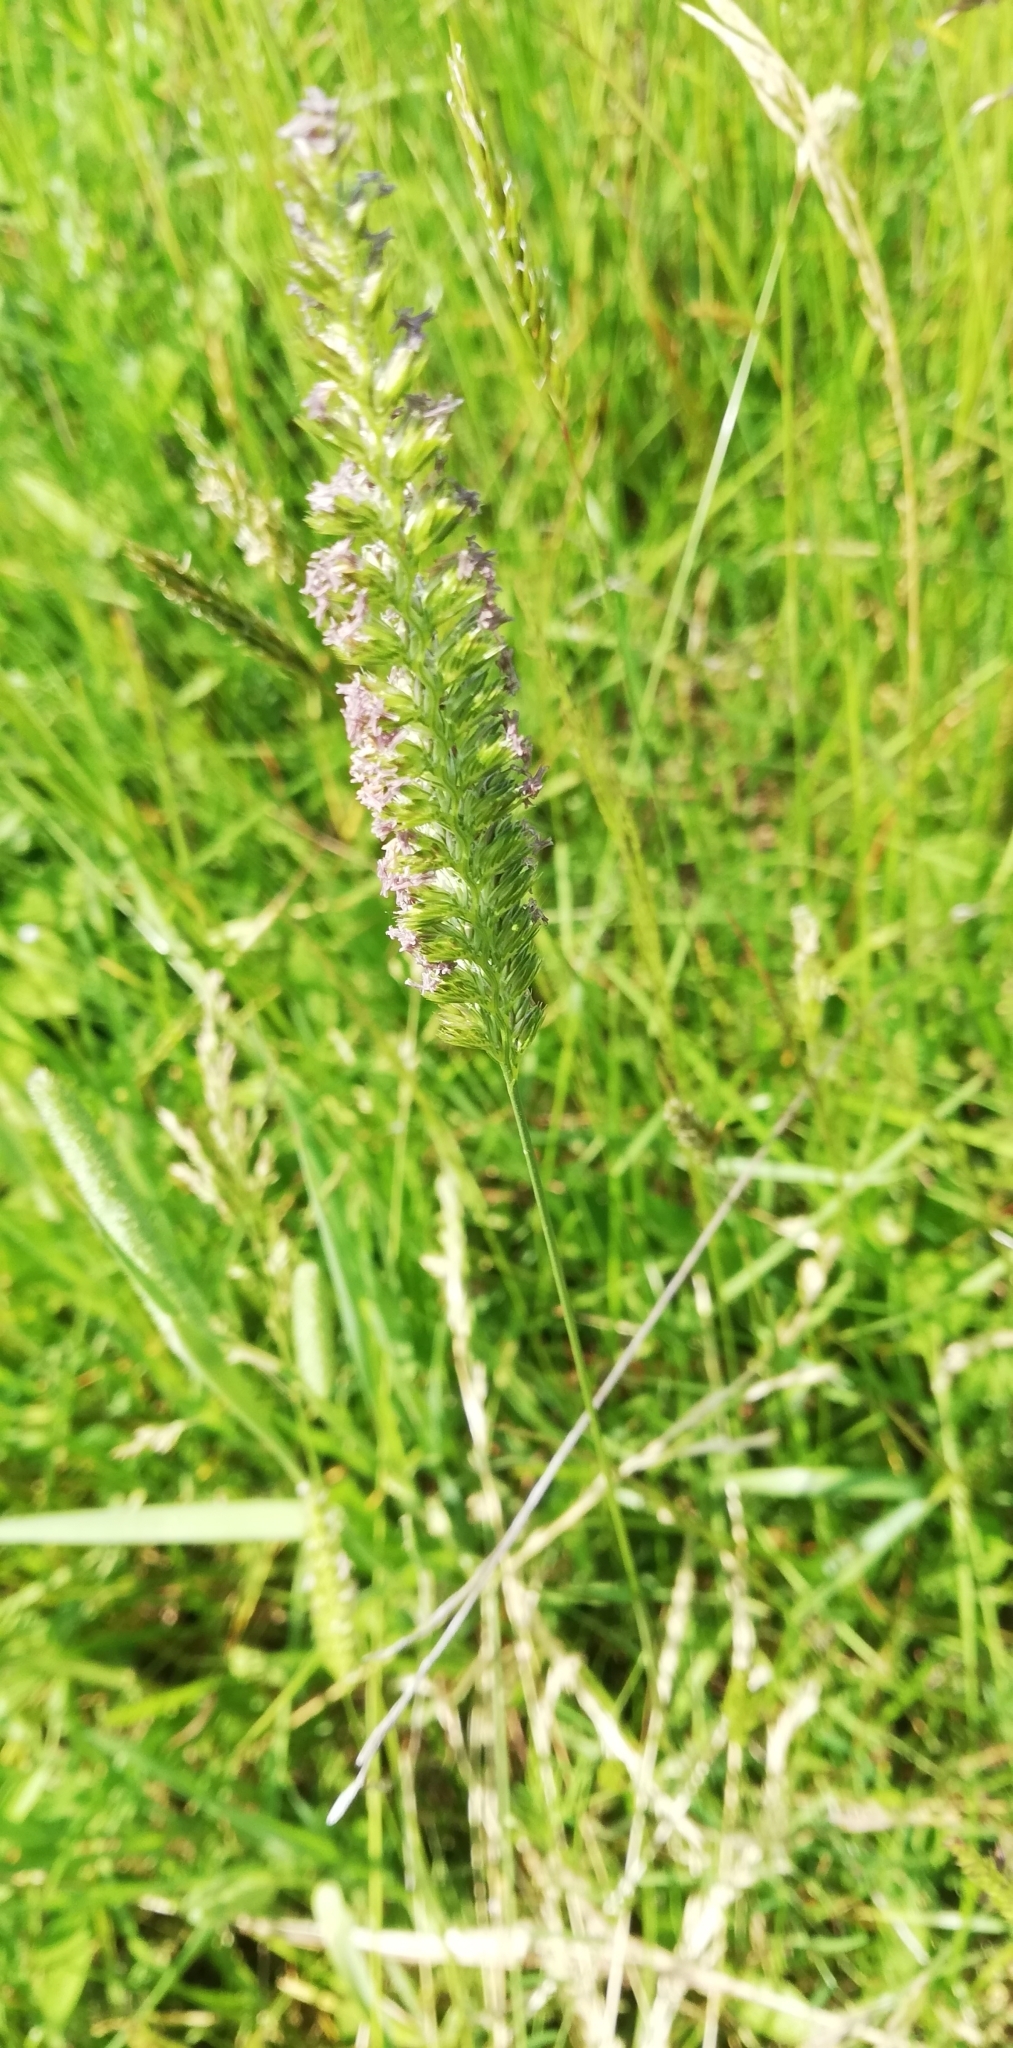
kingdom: Plantae
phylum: Tracheophyta
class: Liliopsida
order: Poales
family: Poaceae
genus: Cynosurus
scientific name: Cynosurus cristatus
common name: Crested dog's-tail
